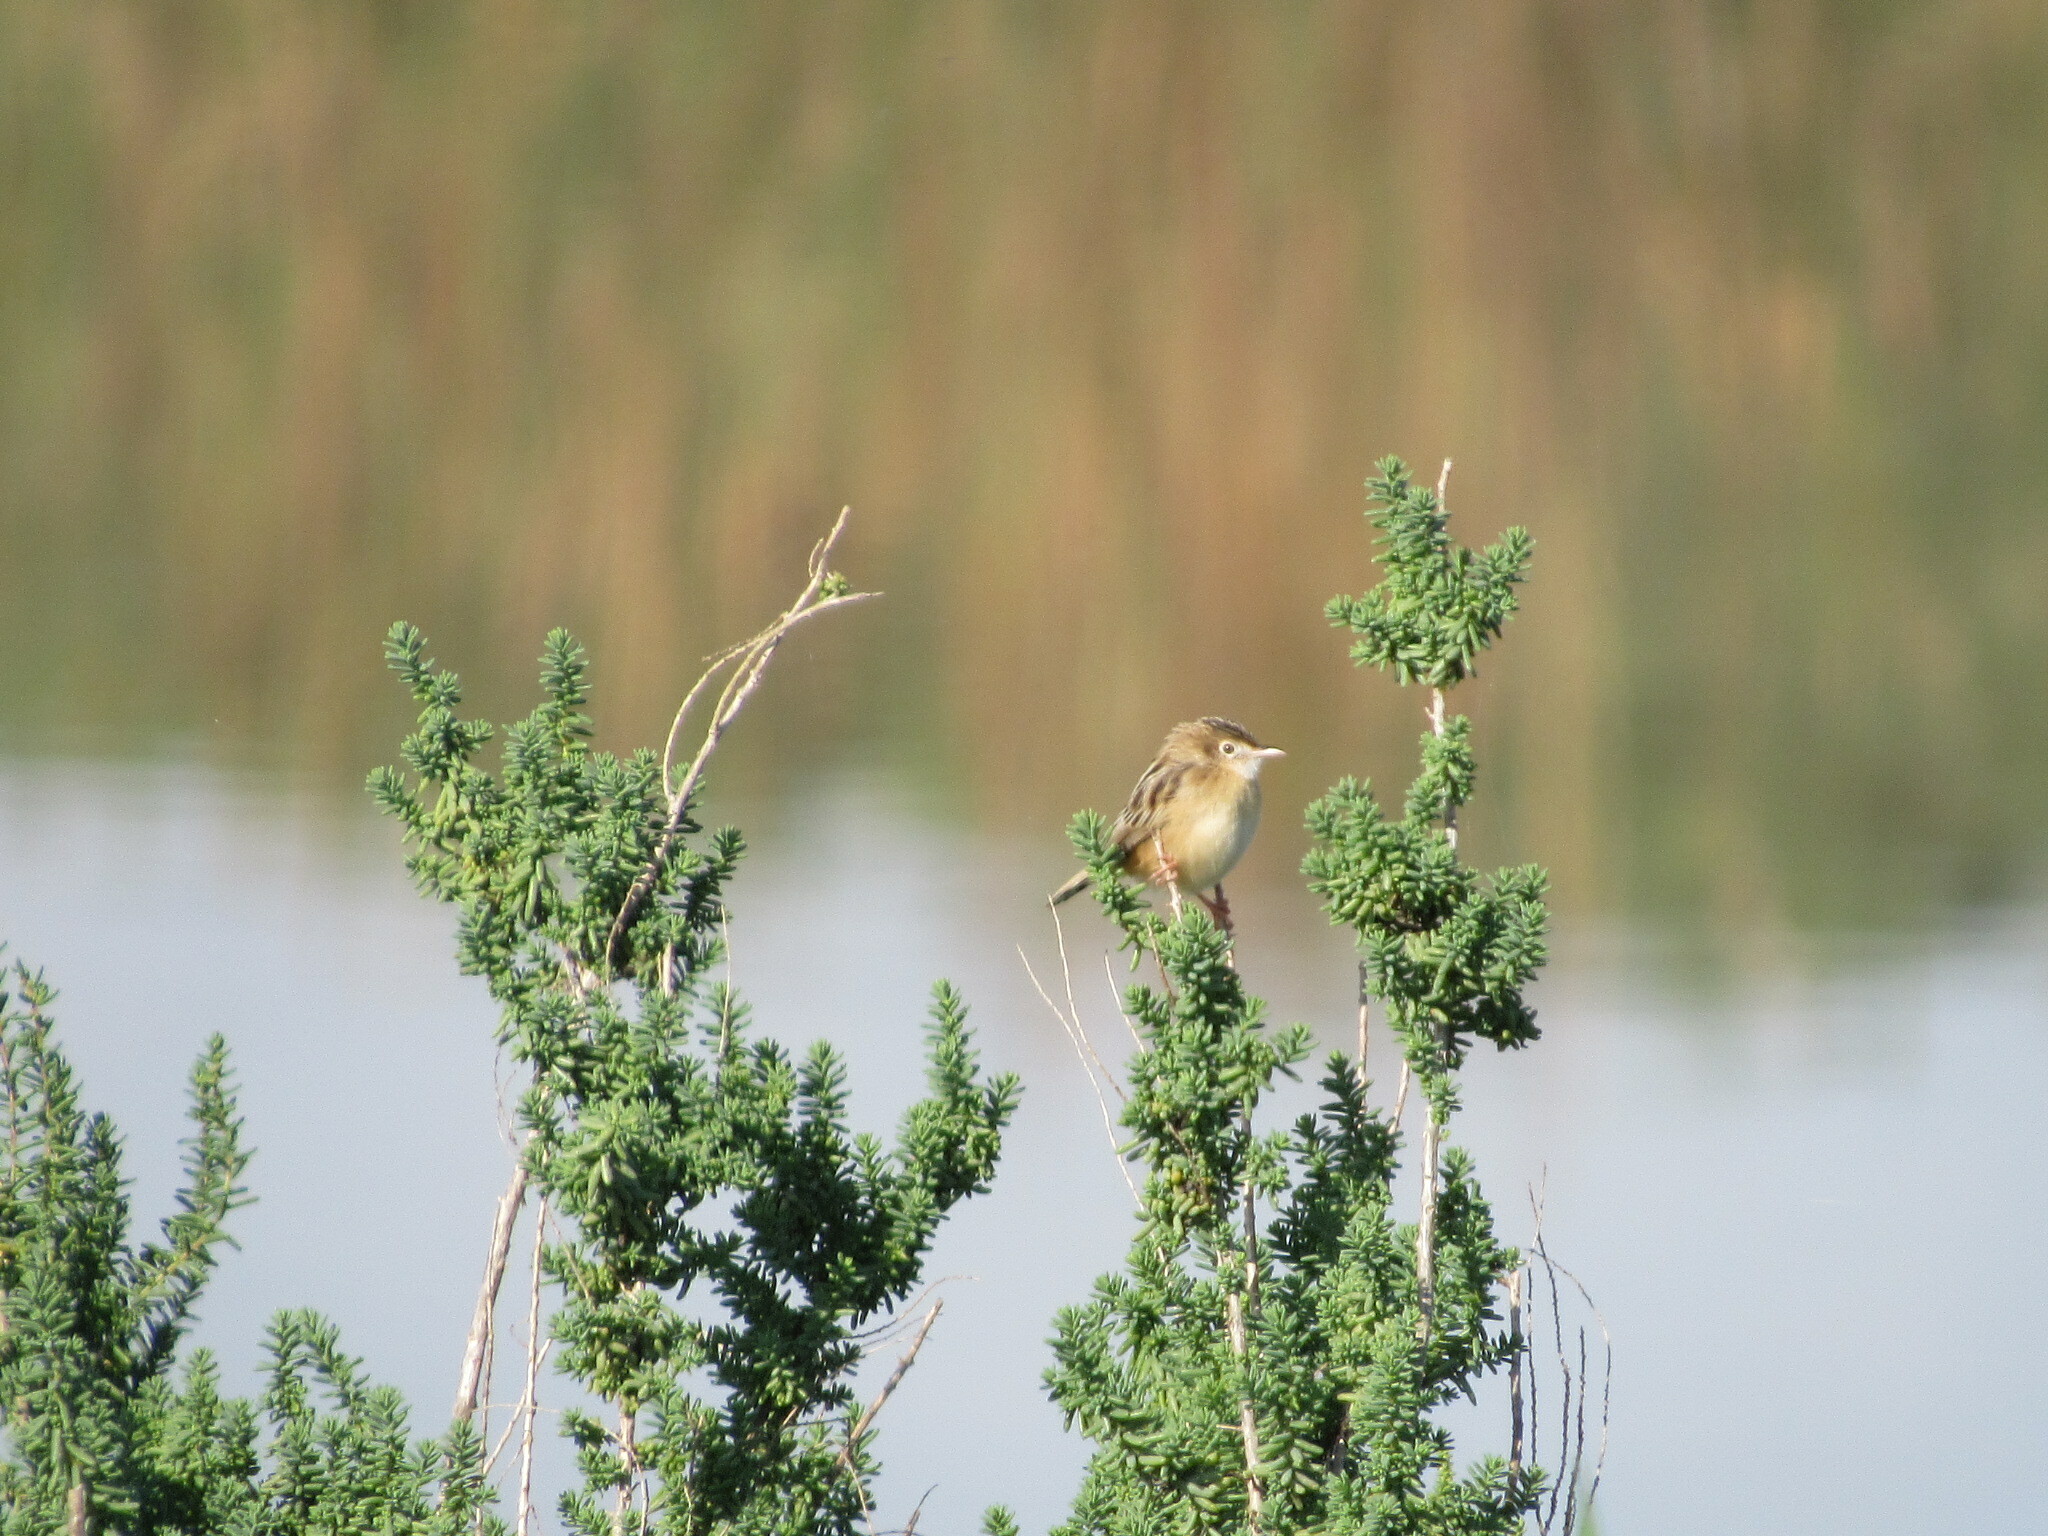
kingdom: Animalia
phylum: Chordata
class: Aves
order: Passeriformes
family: Cisticolidae
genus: Cisticola
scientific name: Cisticola juncidis
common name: Zitting cisticola
